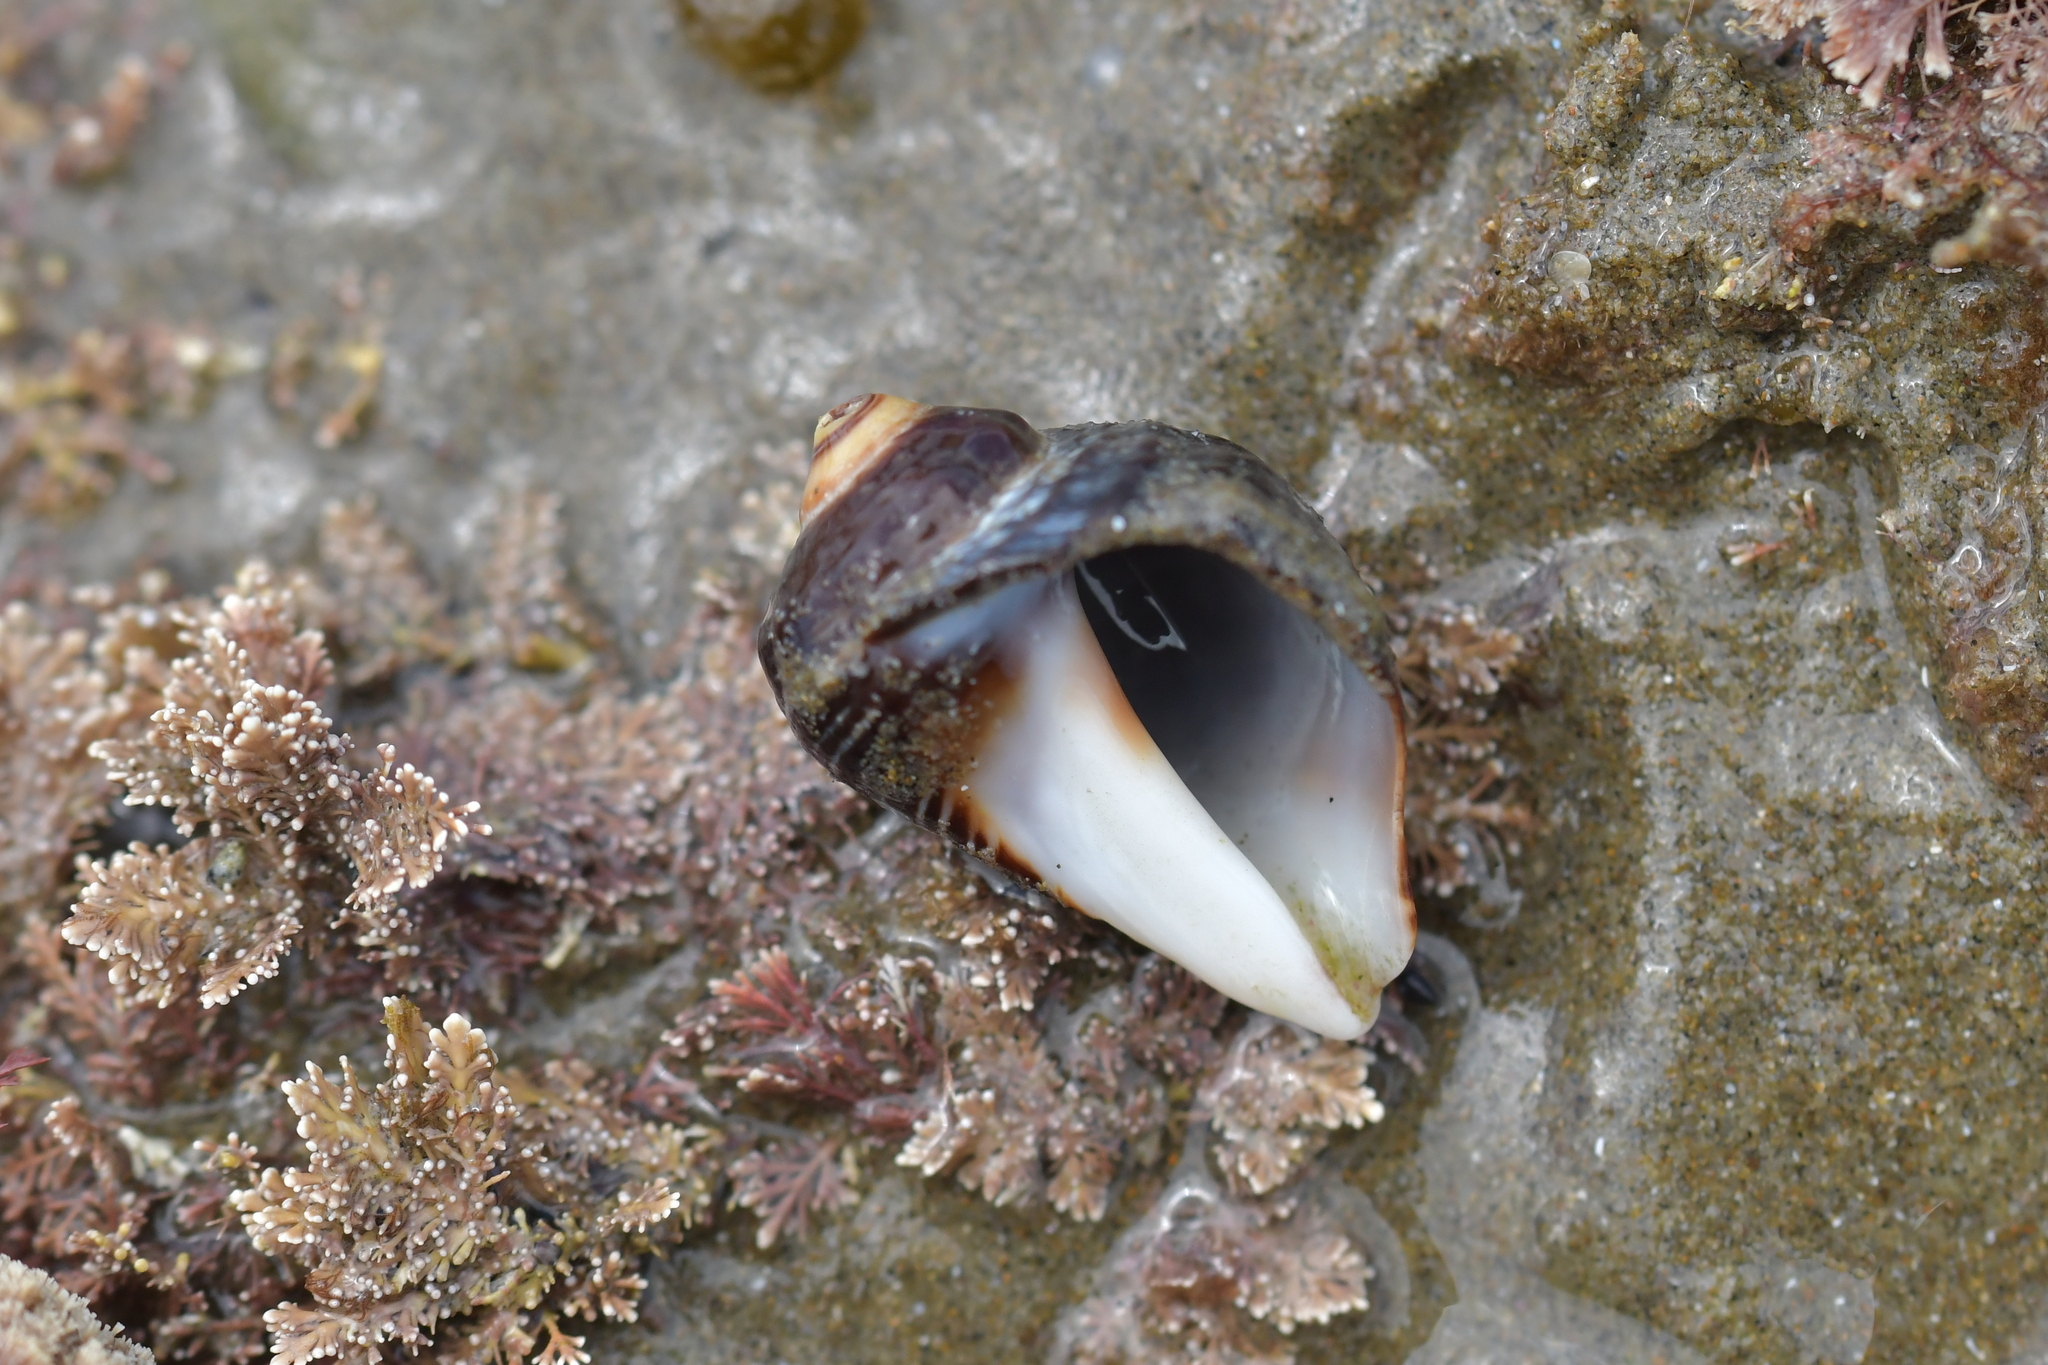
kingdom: Animalia
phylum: Mollusca
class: Gastropoda
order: Neogastropoda
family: Muricidae
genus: Haustrum
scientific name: Haustrum haustorium
